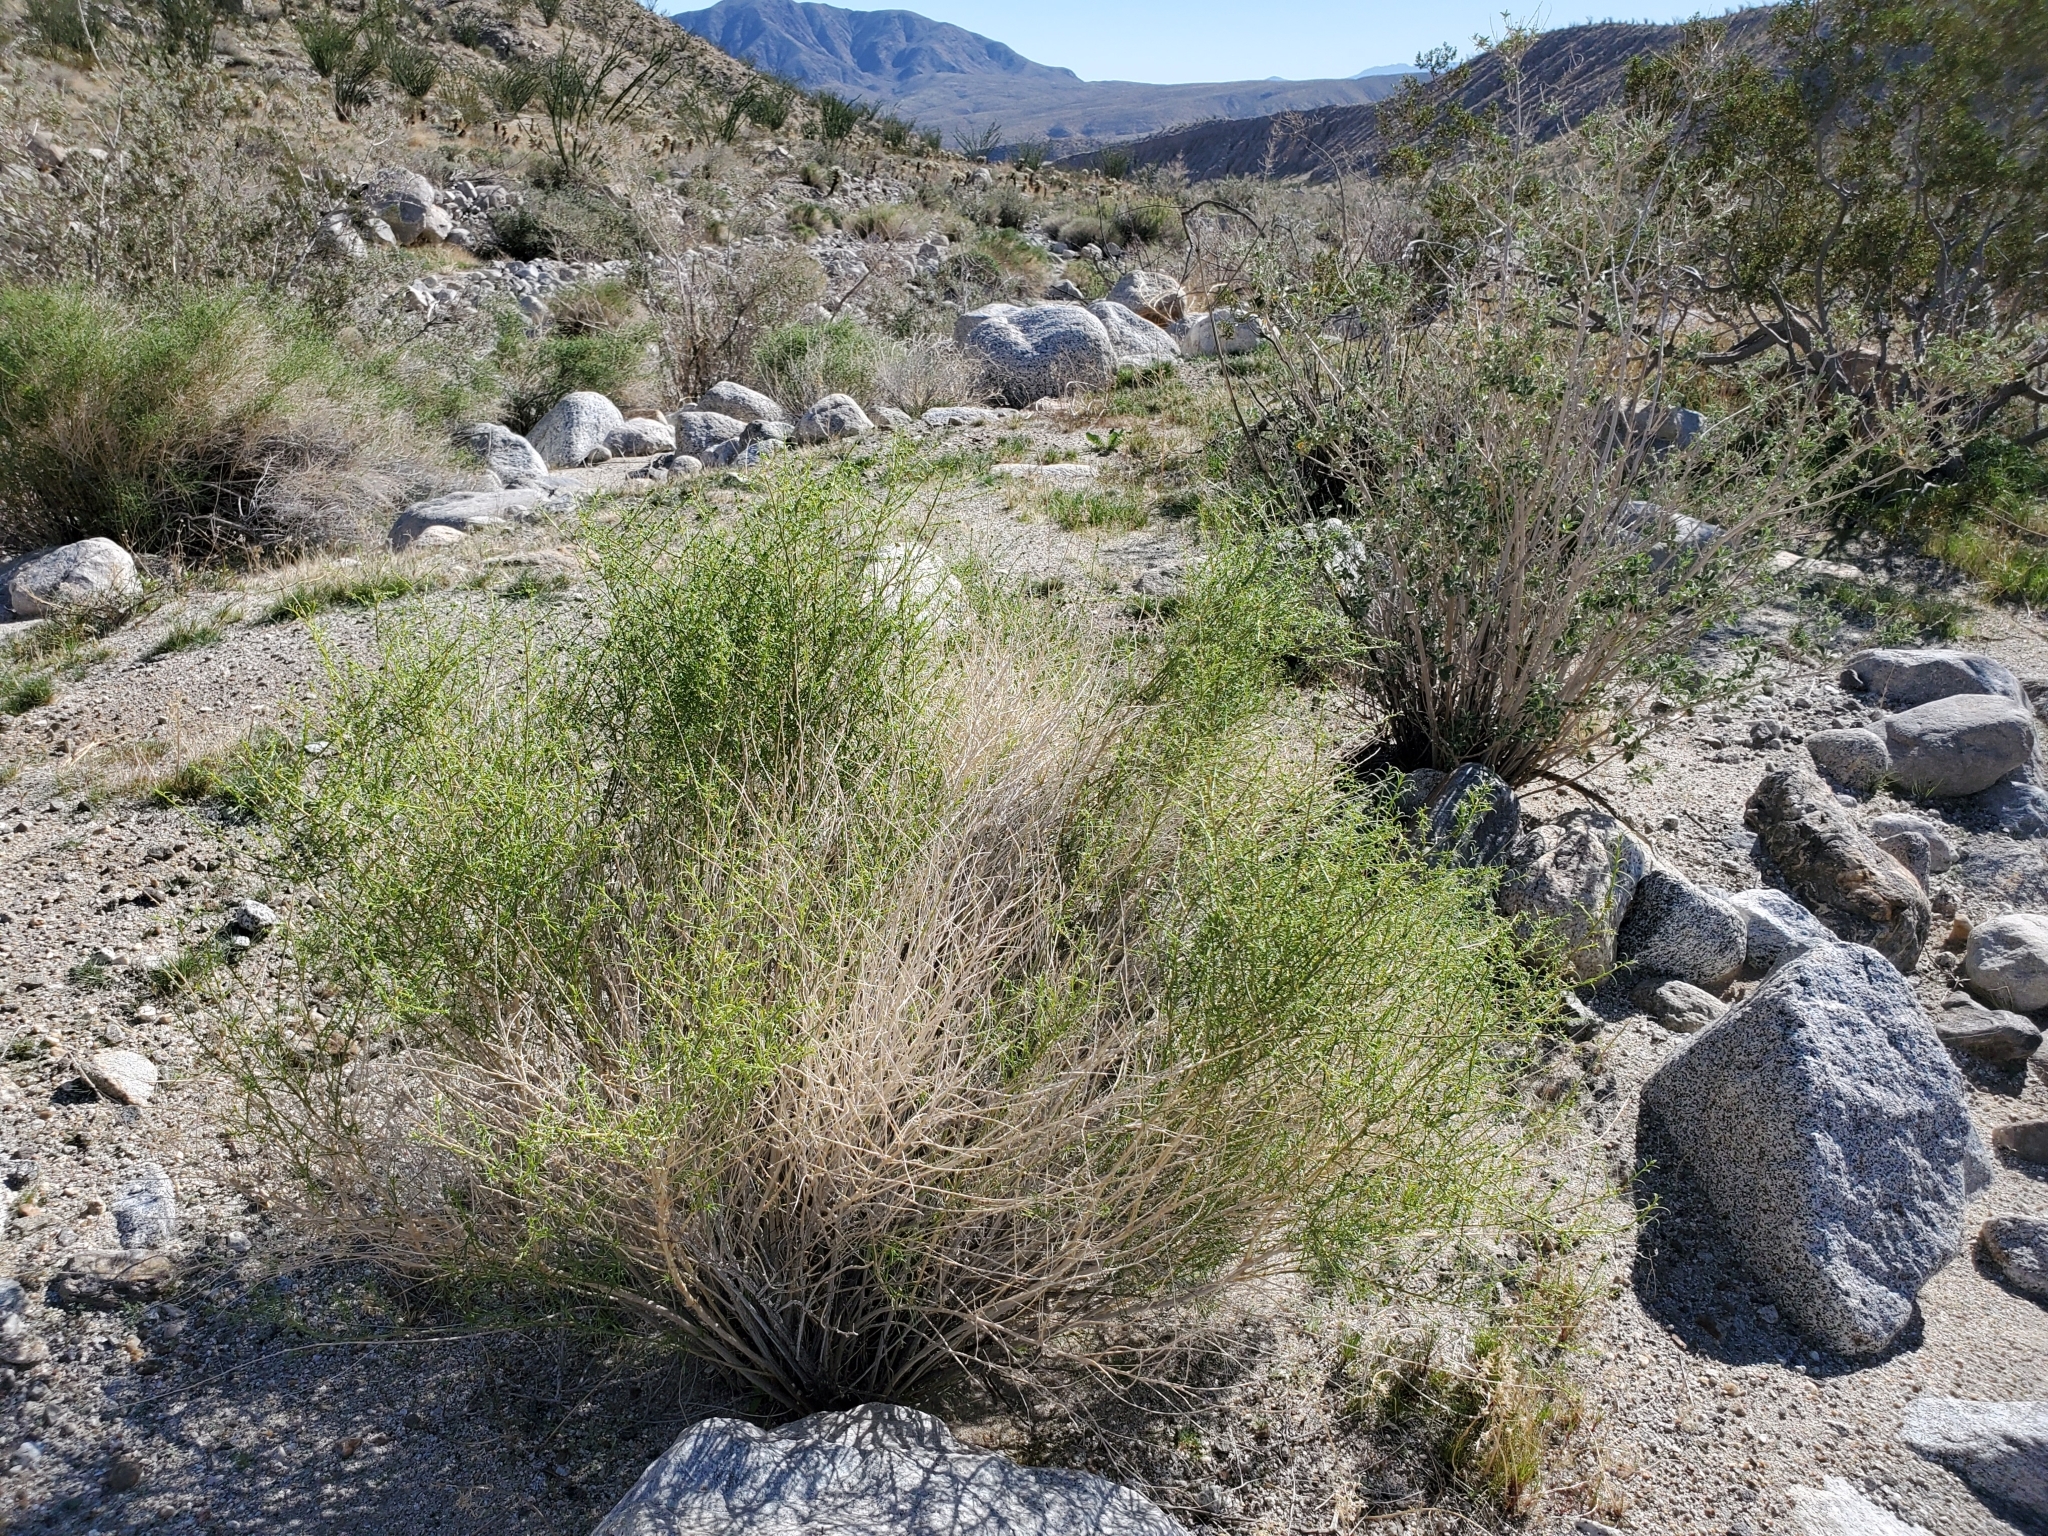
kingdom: Plantae
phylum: Tracheophyta
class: Magnoliopsida
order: Asterales
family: Asteraceae
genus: Ambrosia
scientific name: Ambrosia salsola
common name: Burrobrush
